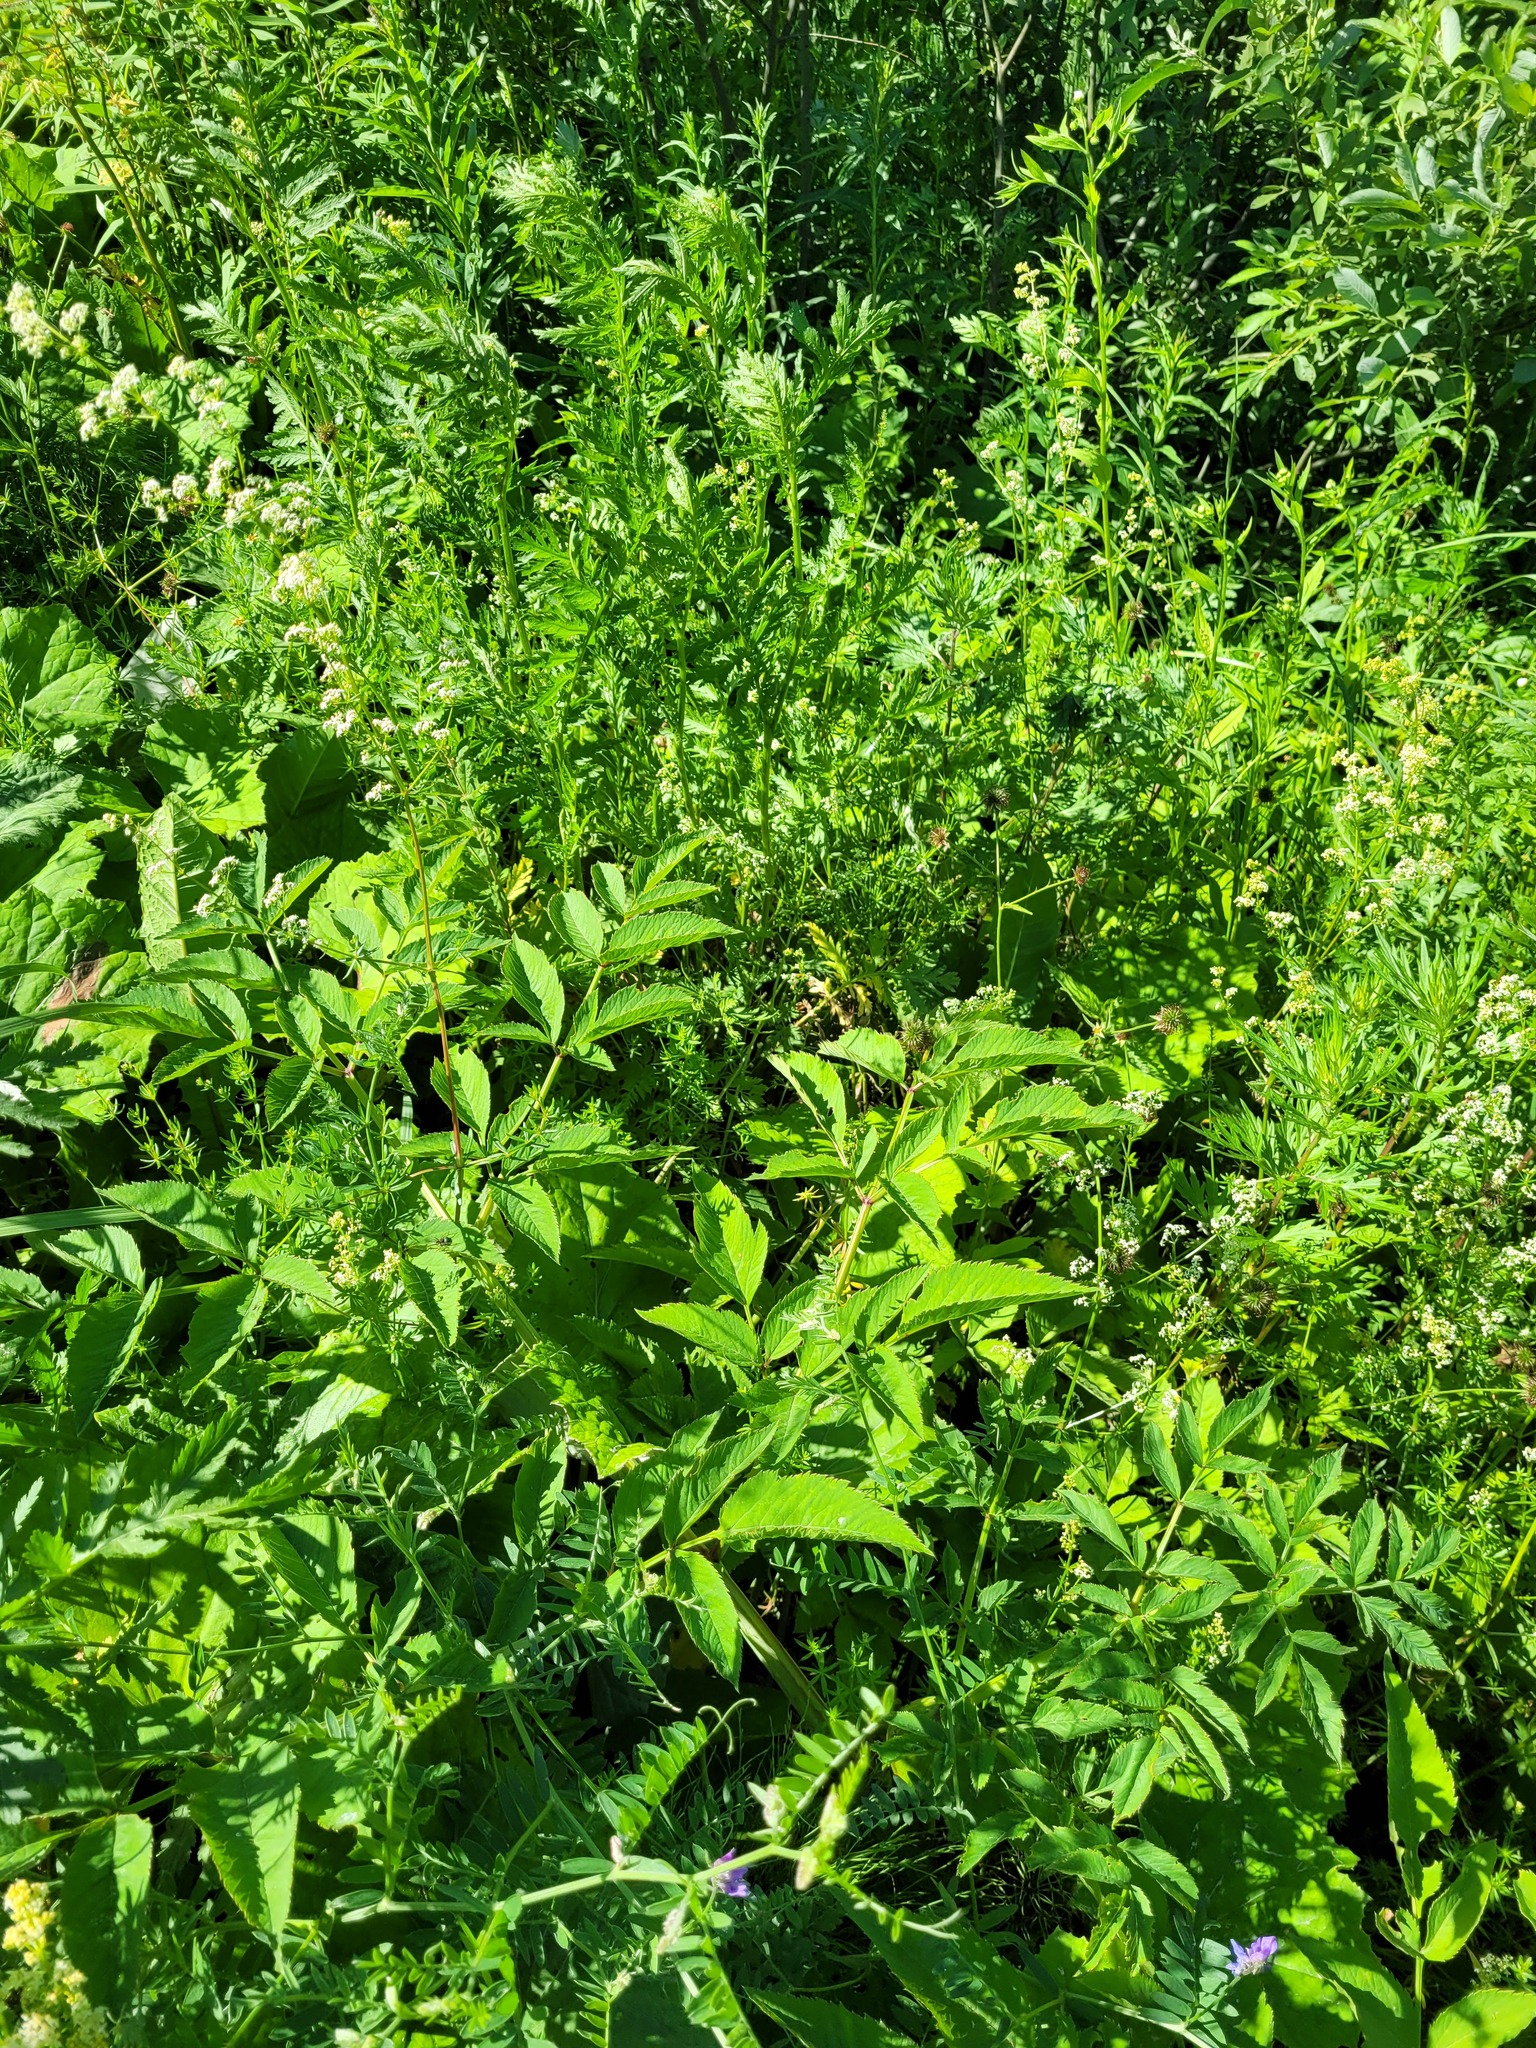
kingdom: Plantae
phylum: Tracheophyta
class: Magnoliopsida
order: Apiales
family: Apiaceae
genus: Angelica
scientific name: Angelica sylvestris
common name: Wild angelica
